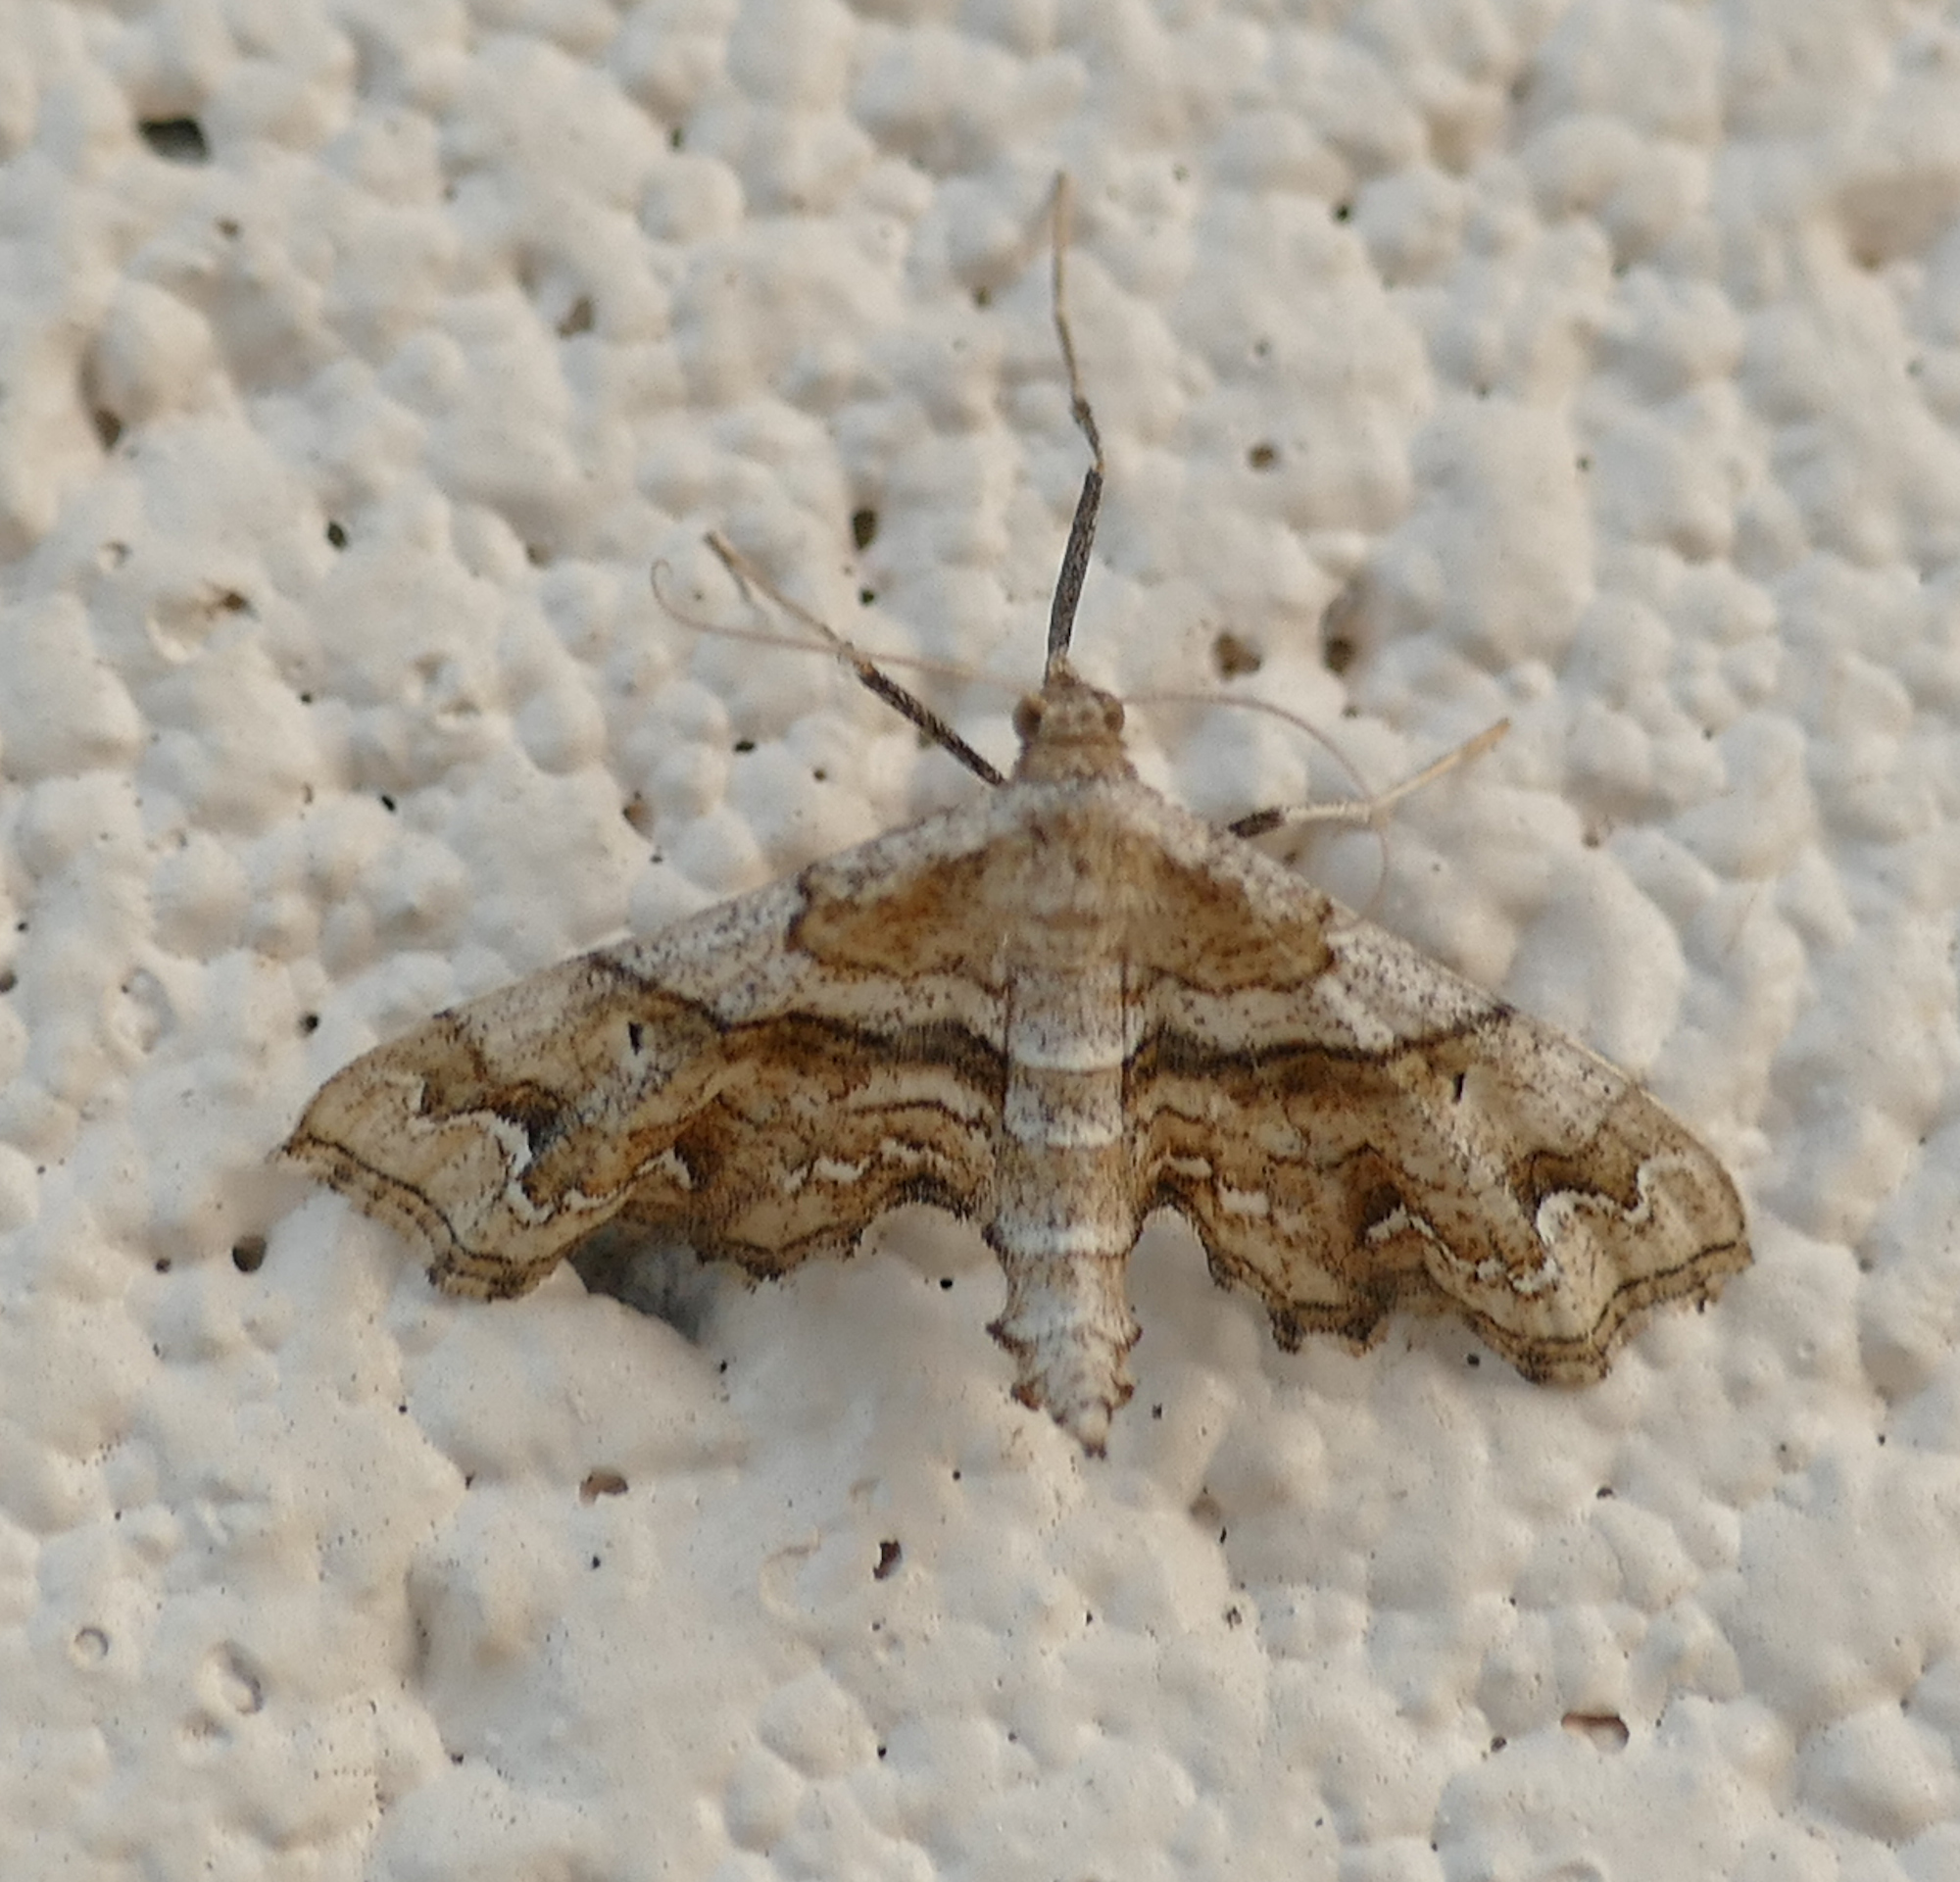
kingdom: Animalia
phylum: Arthropoda
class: Insecta
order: Lepidoptera
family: Geometridae
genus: Odontoptila
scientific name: Odontoptila obrimo
